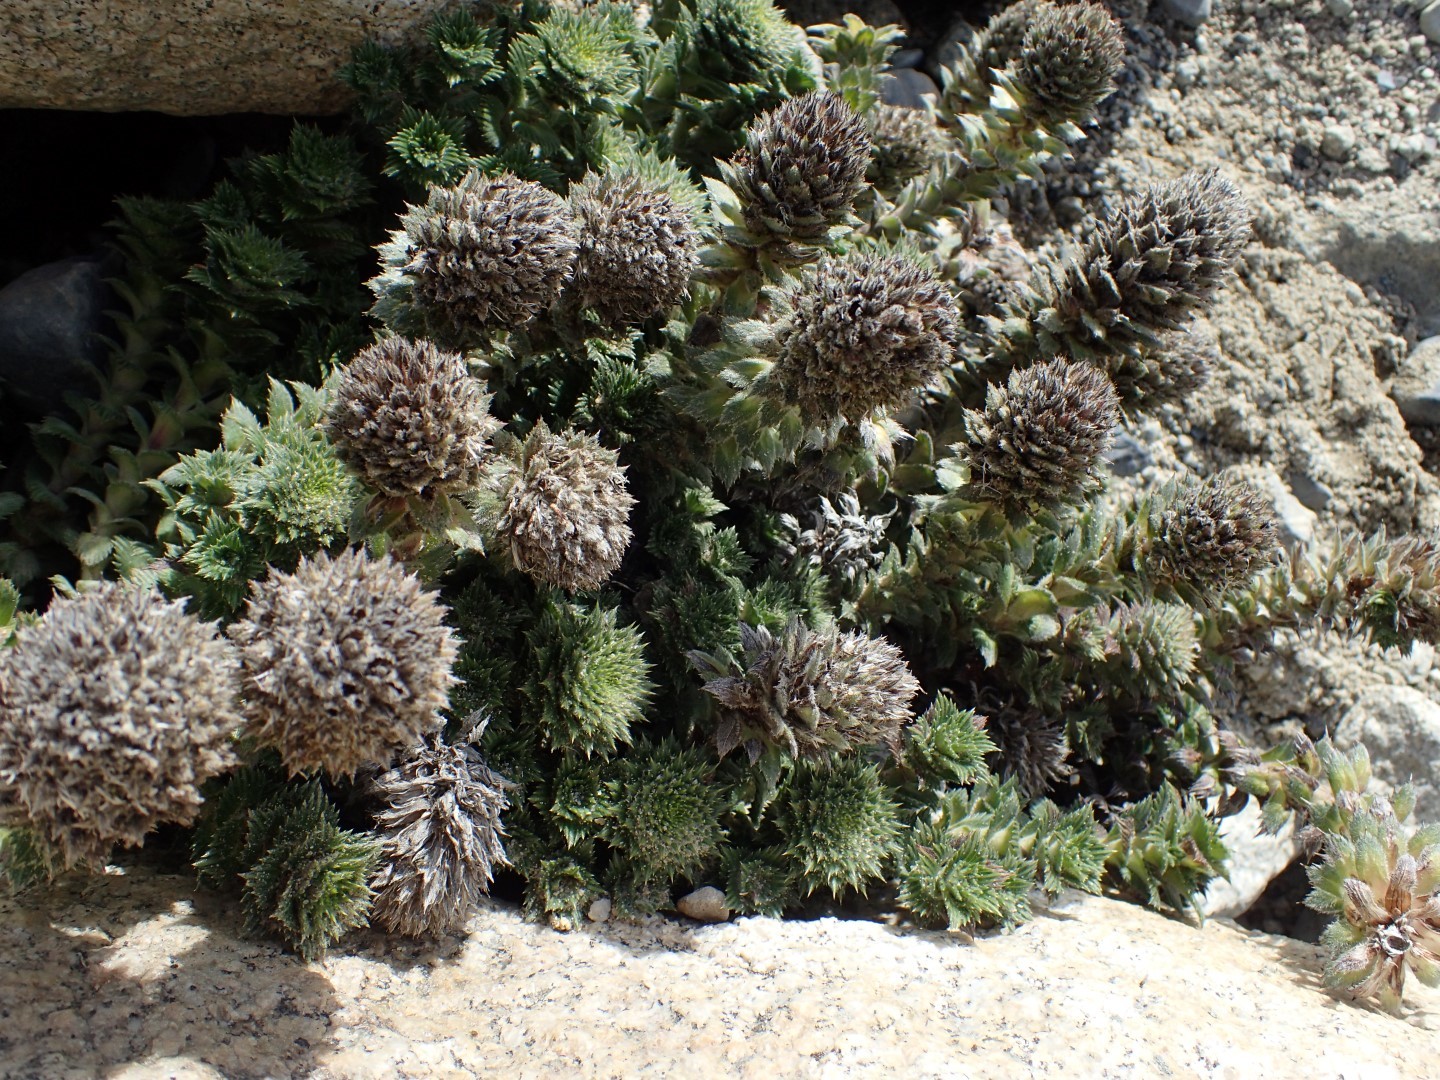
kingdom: Plantae
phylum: Tracheophyta
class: Magnoliopsida
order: Asterales
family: Asteraceae
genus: Nassauvia
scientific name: Nassauvia dentata
